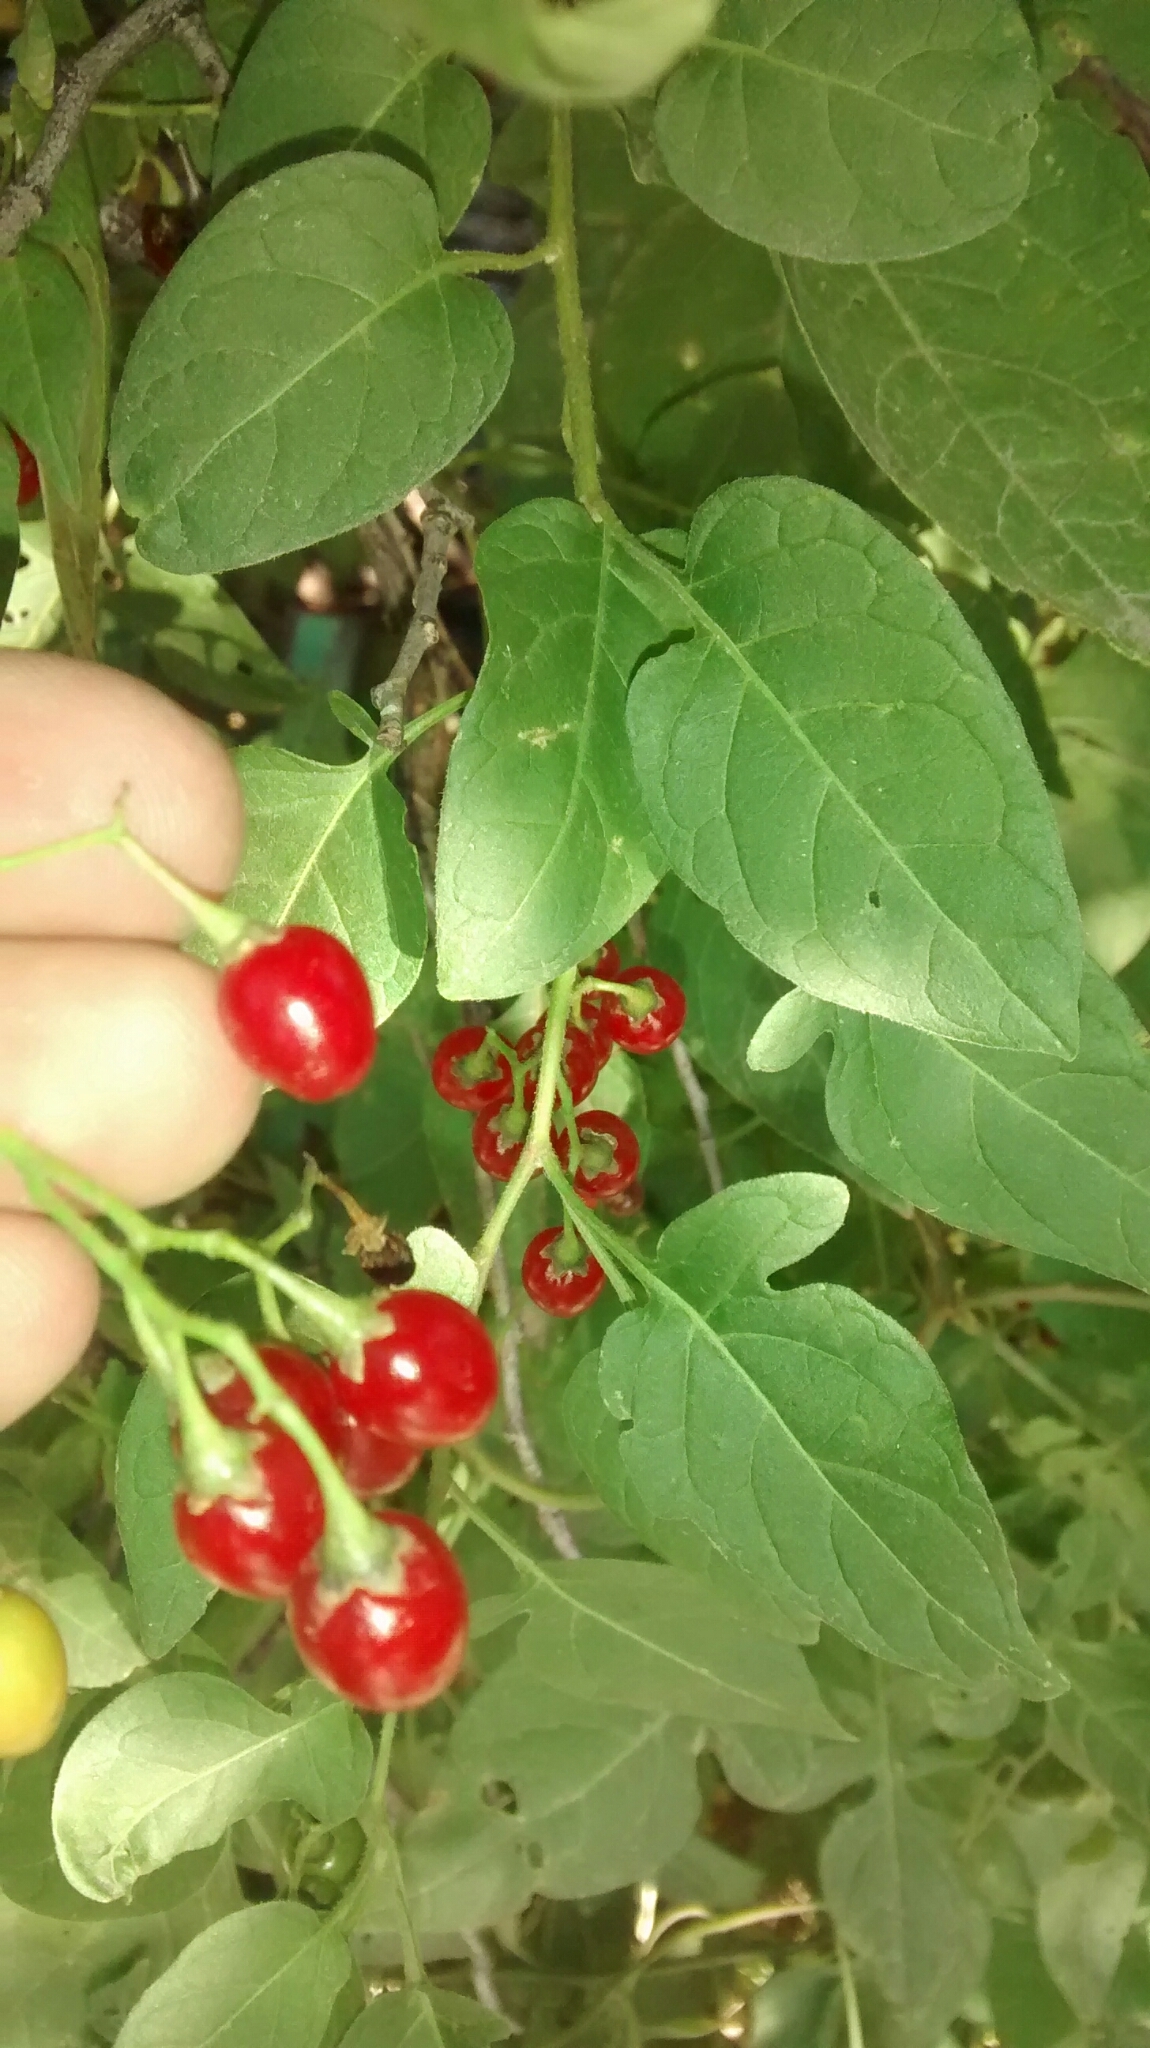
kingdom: Plantae
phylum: Tracheophyta
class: Magnoliopsida
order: Solanales
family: Solanaceae
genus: Solanum
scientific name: Solanum dulcamara
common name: Climbing nightshade
